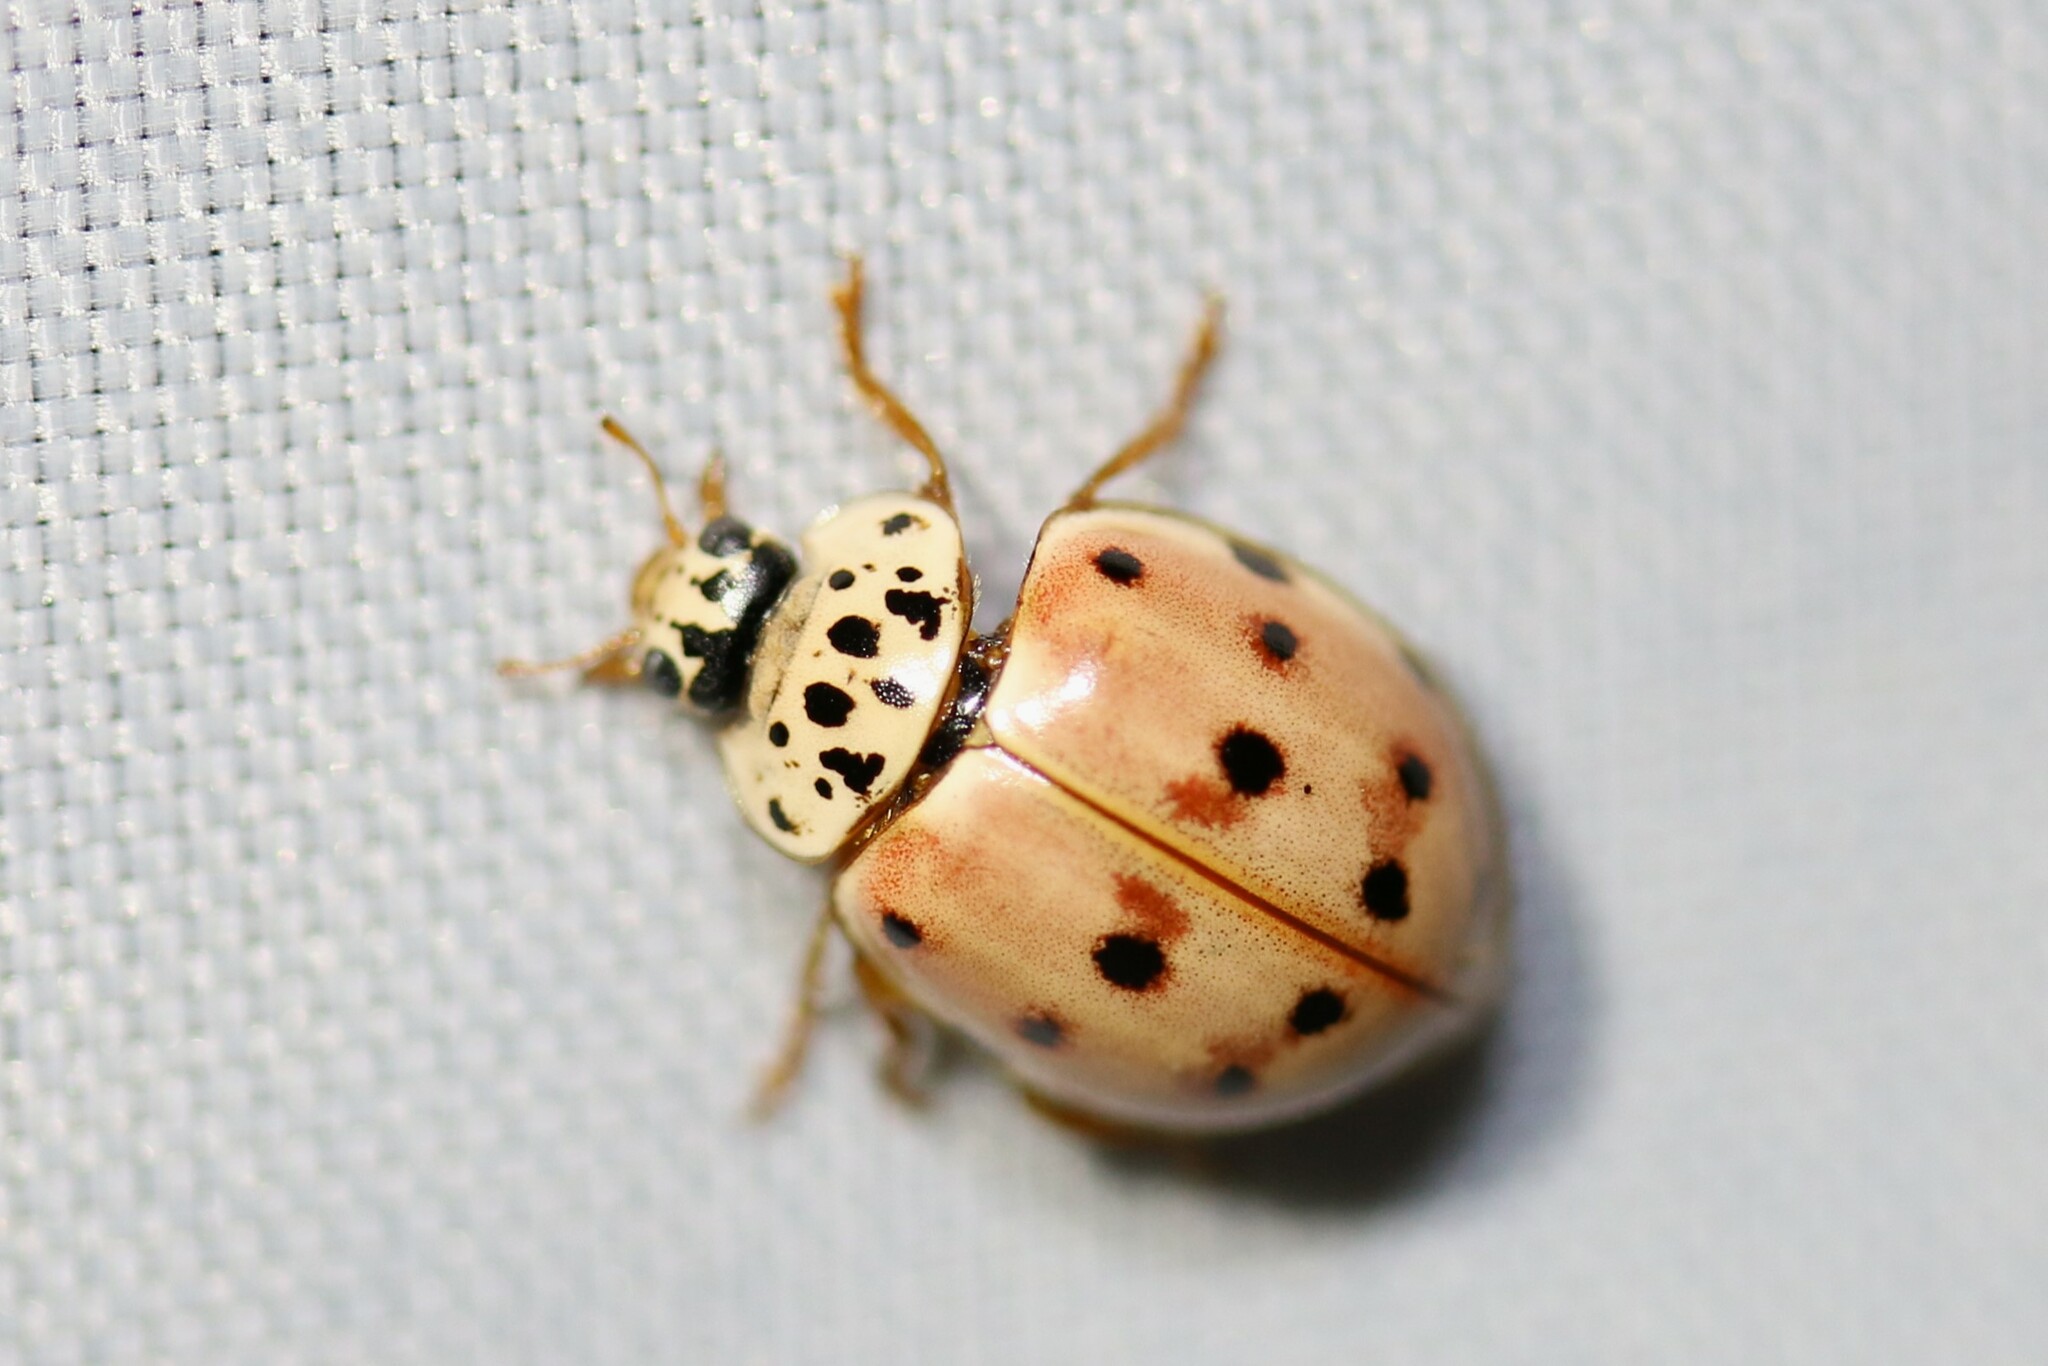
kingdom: Animalia
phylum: Arthropoda
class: Insecta
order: Coleoptera
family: Coccinellidae
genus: Harmonia
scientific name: Harmonia quadripunctata
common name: Cream-streaked ladybird
